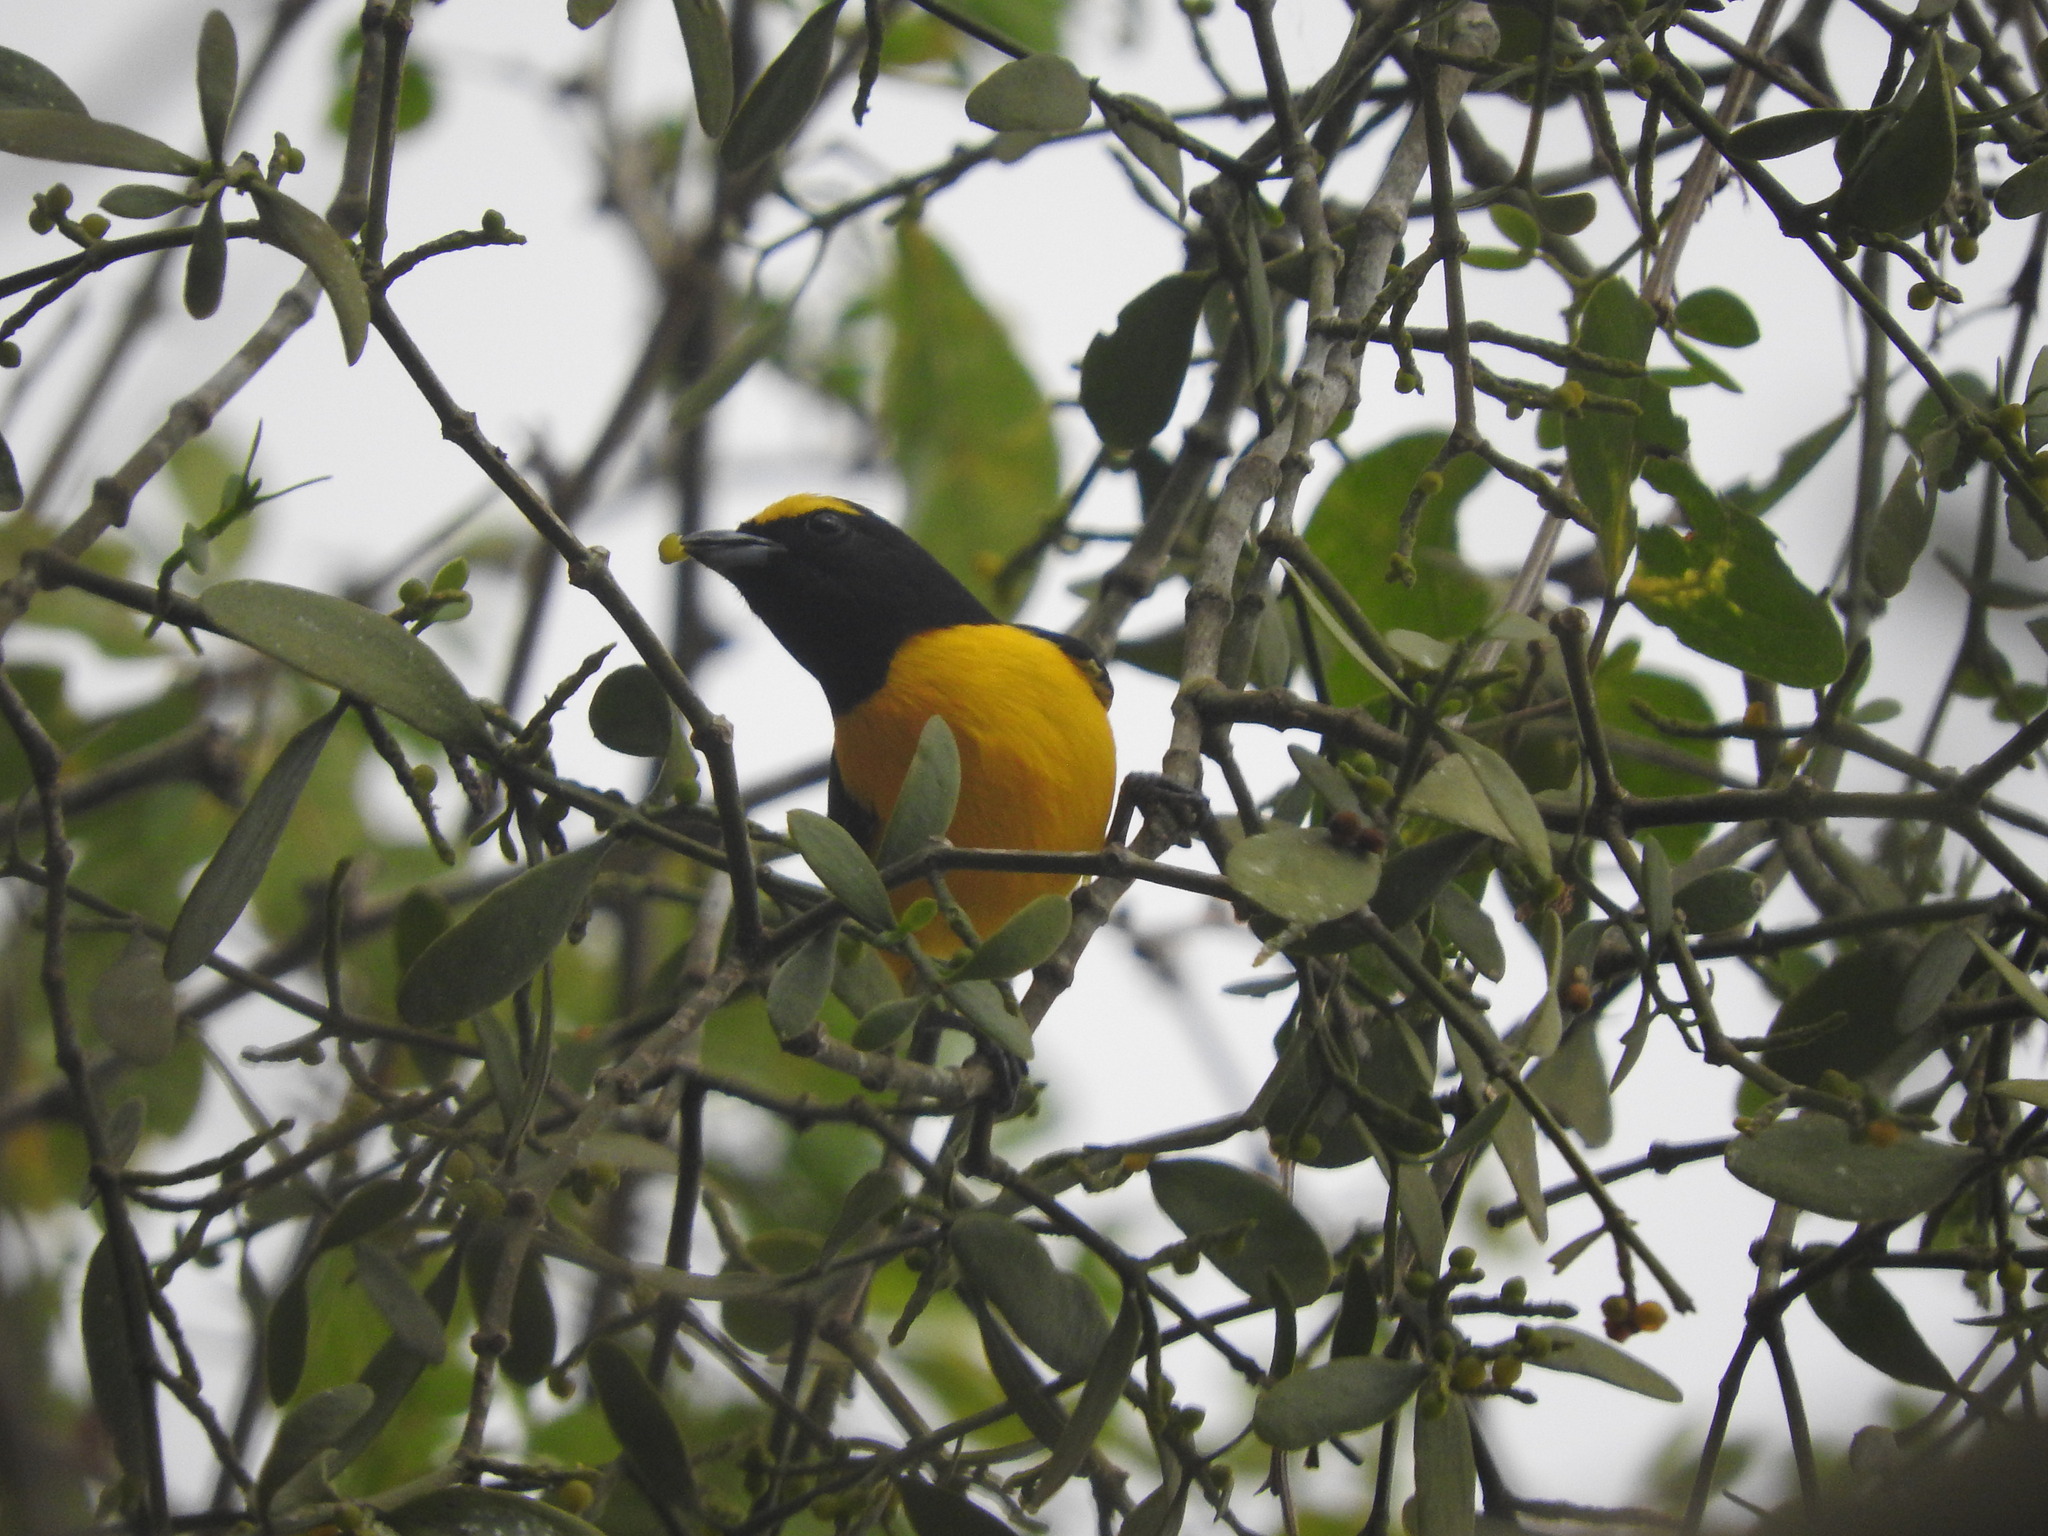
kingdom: Animalia
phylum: Chordata
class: Aves
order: Passeriformes
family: Fringillidae
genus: Euphonia
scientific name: Euphonia affinis
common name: Scrub euphonia
